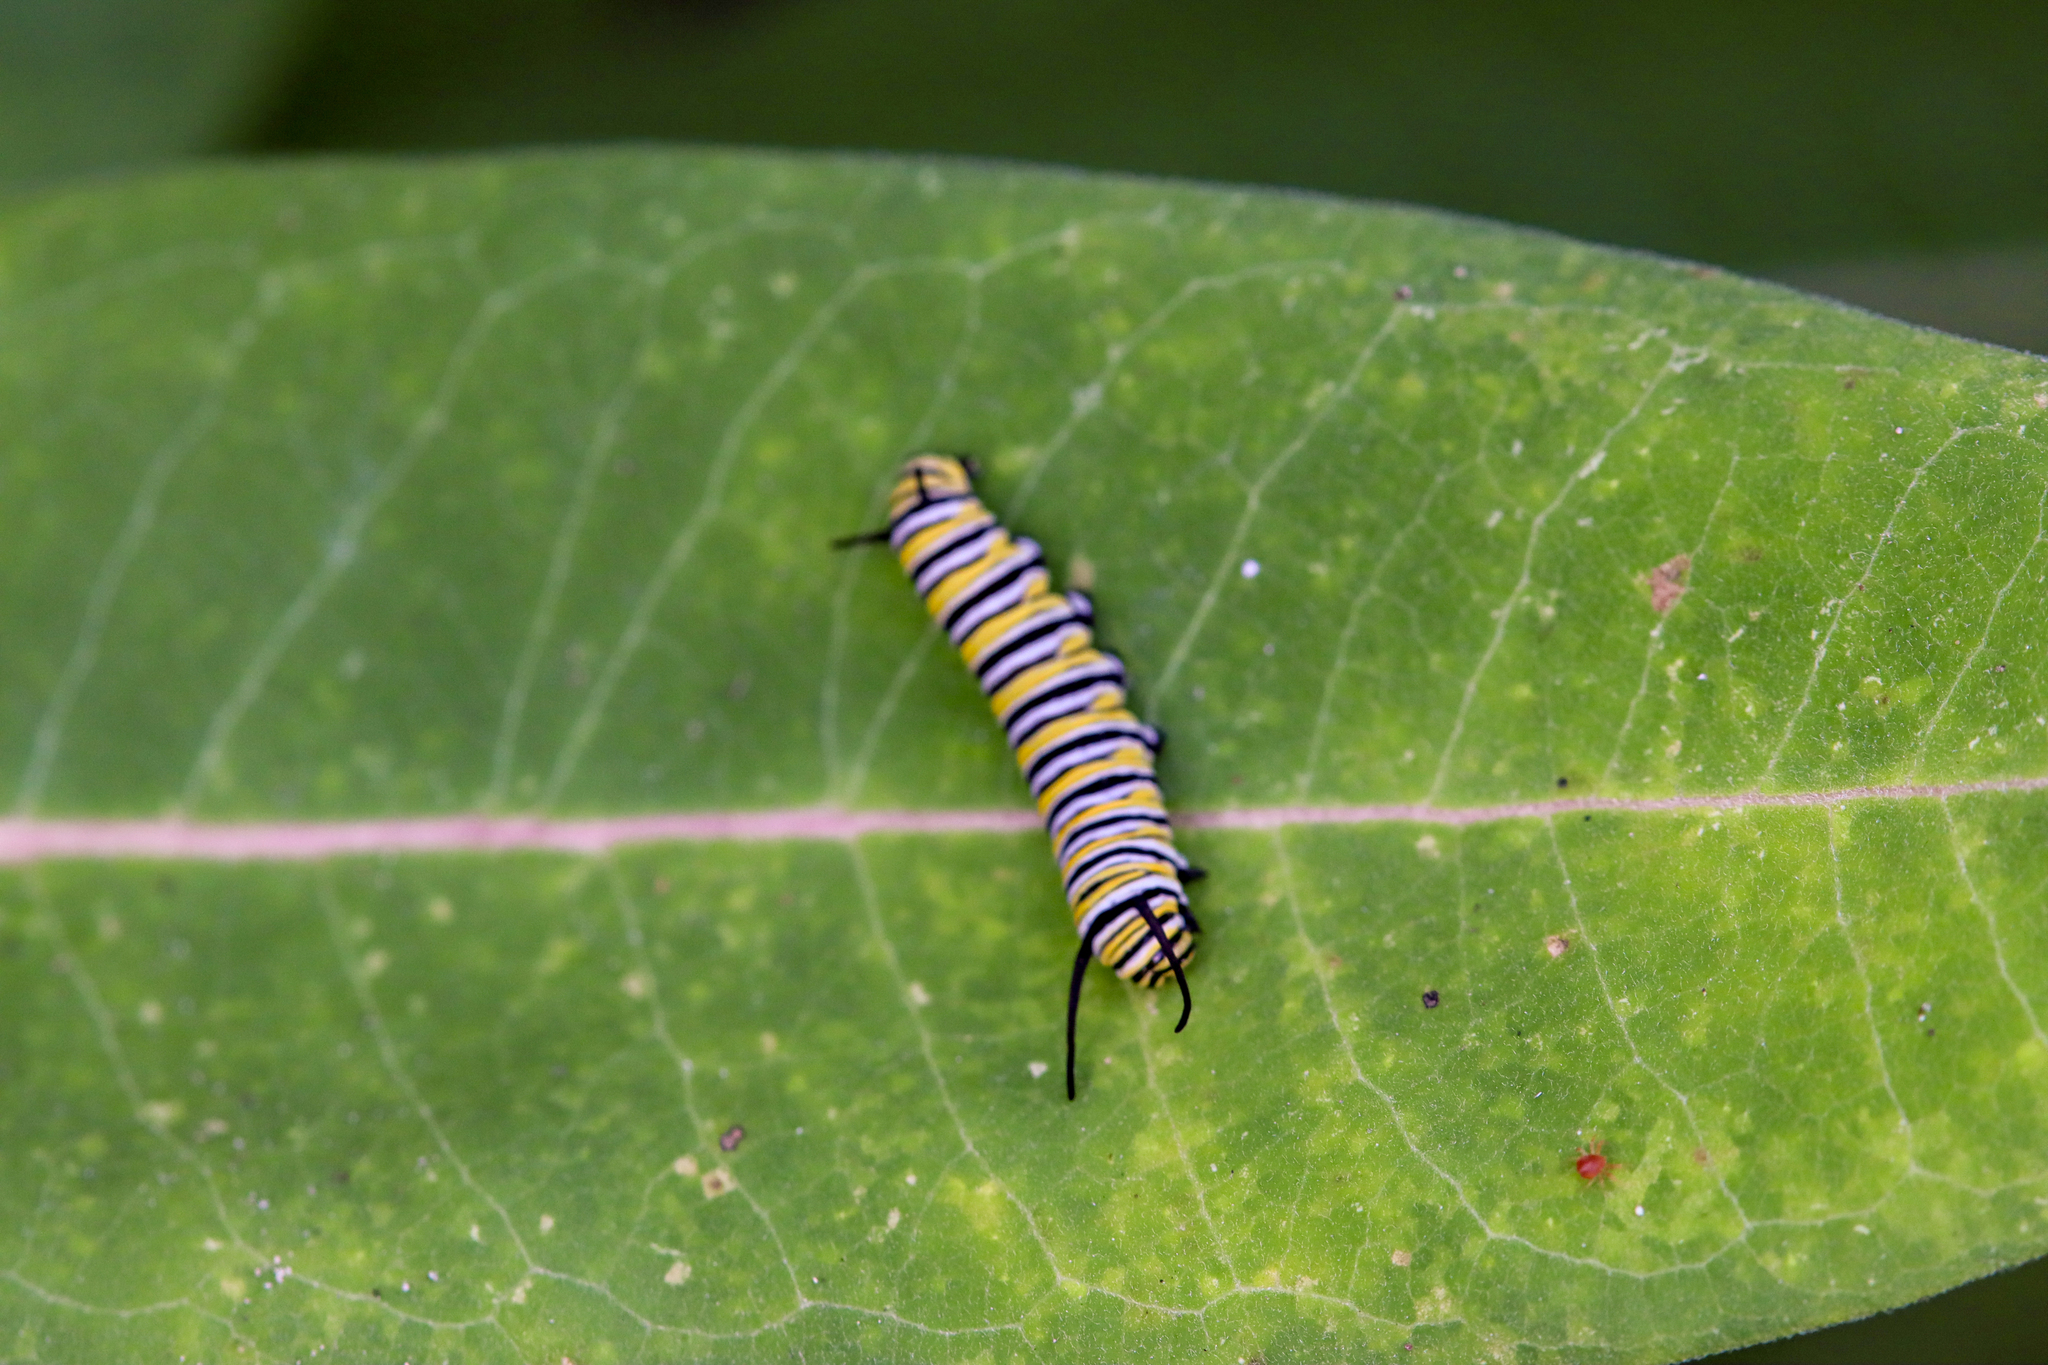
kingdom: Animalia
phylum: Arthropoda
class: Insecta
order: Lepidoptera
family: Nymphalidae
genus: Danaus
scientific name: Danaus plexippus
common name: Monarch
